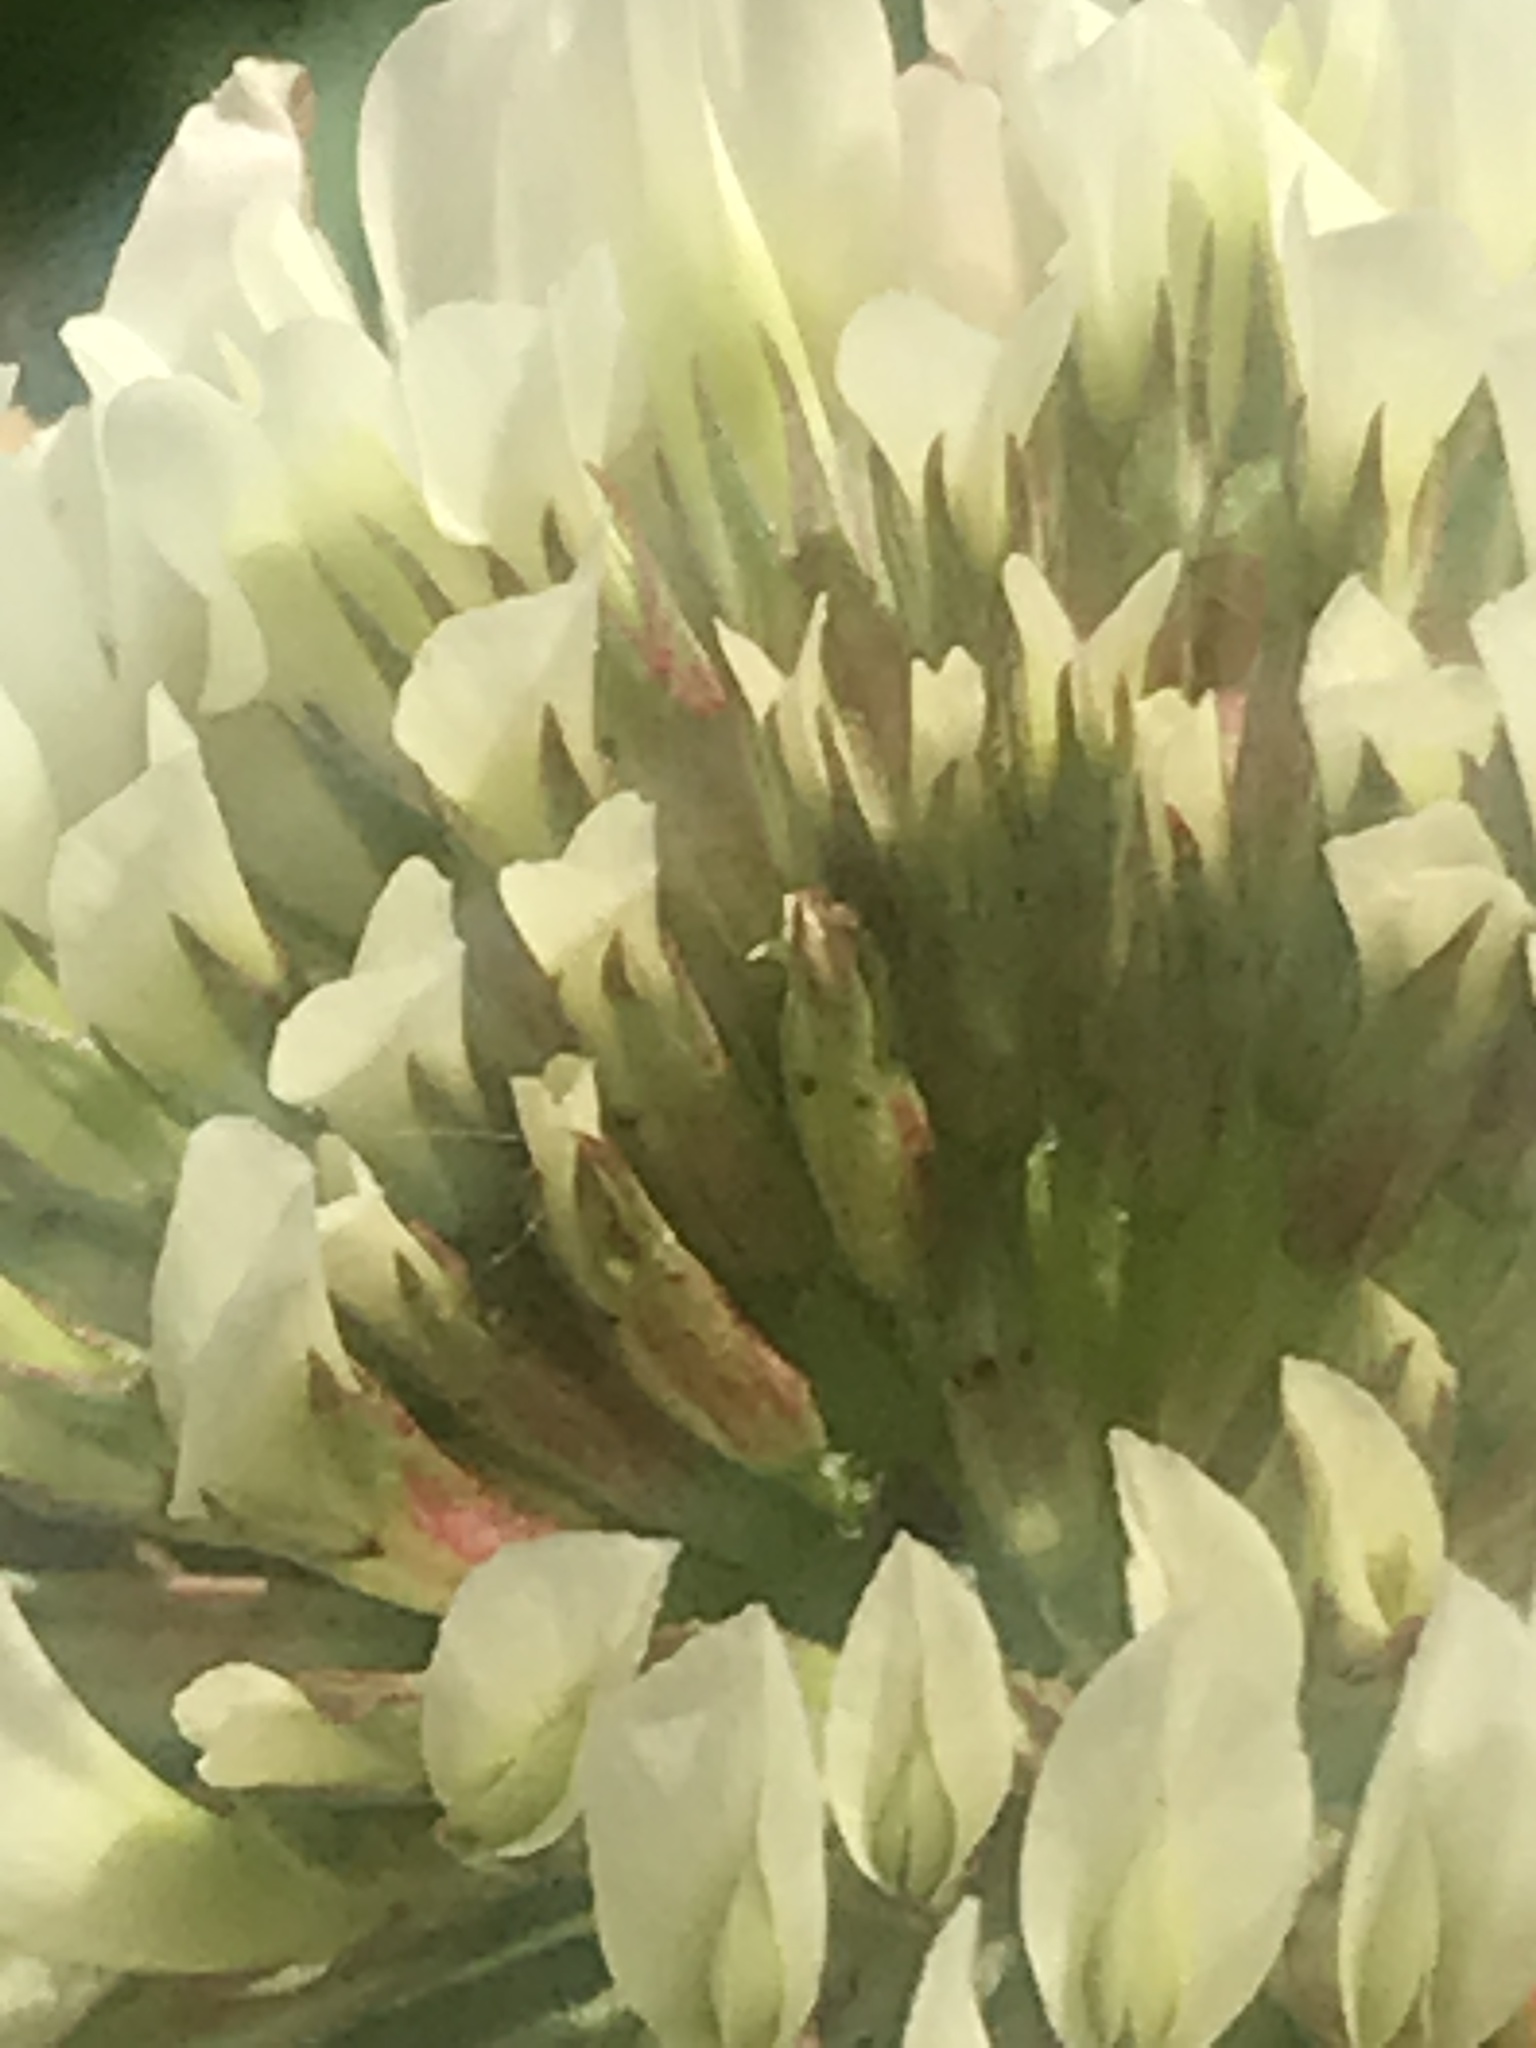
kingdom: Plantae
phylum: Tracheophyta
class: Magnoliopsida
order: Fabales
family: Fabaceae
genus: Trifolium
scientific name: Trifolium repens
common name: White clover
